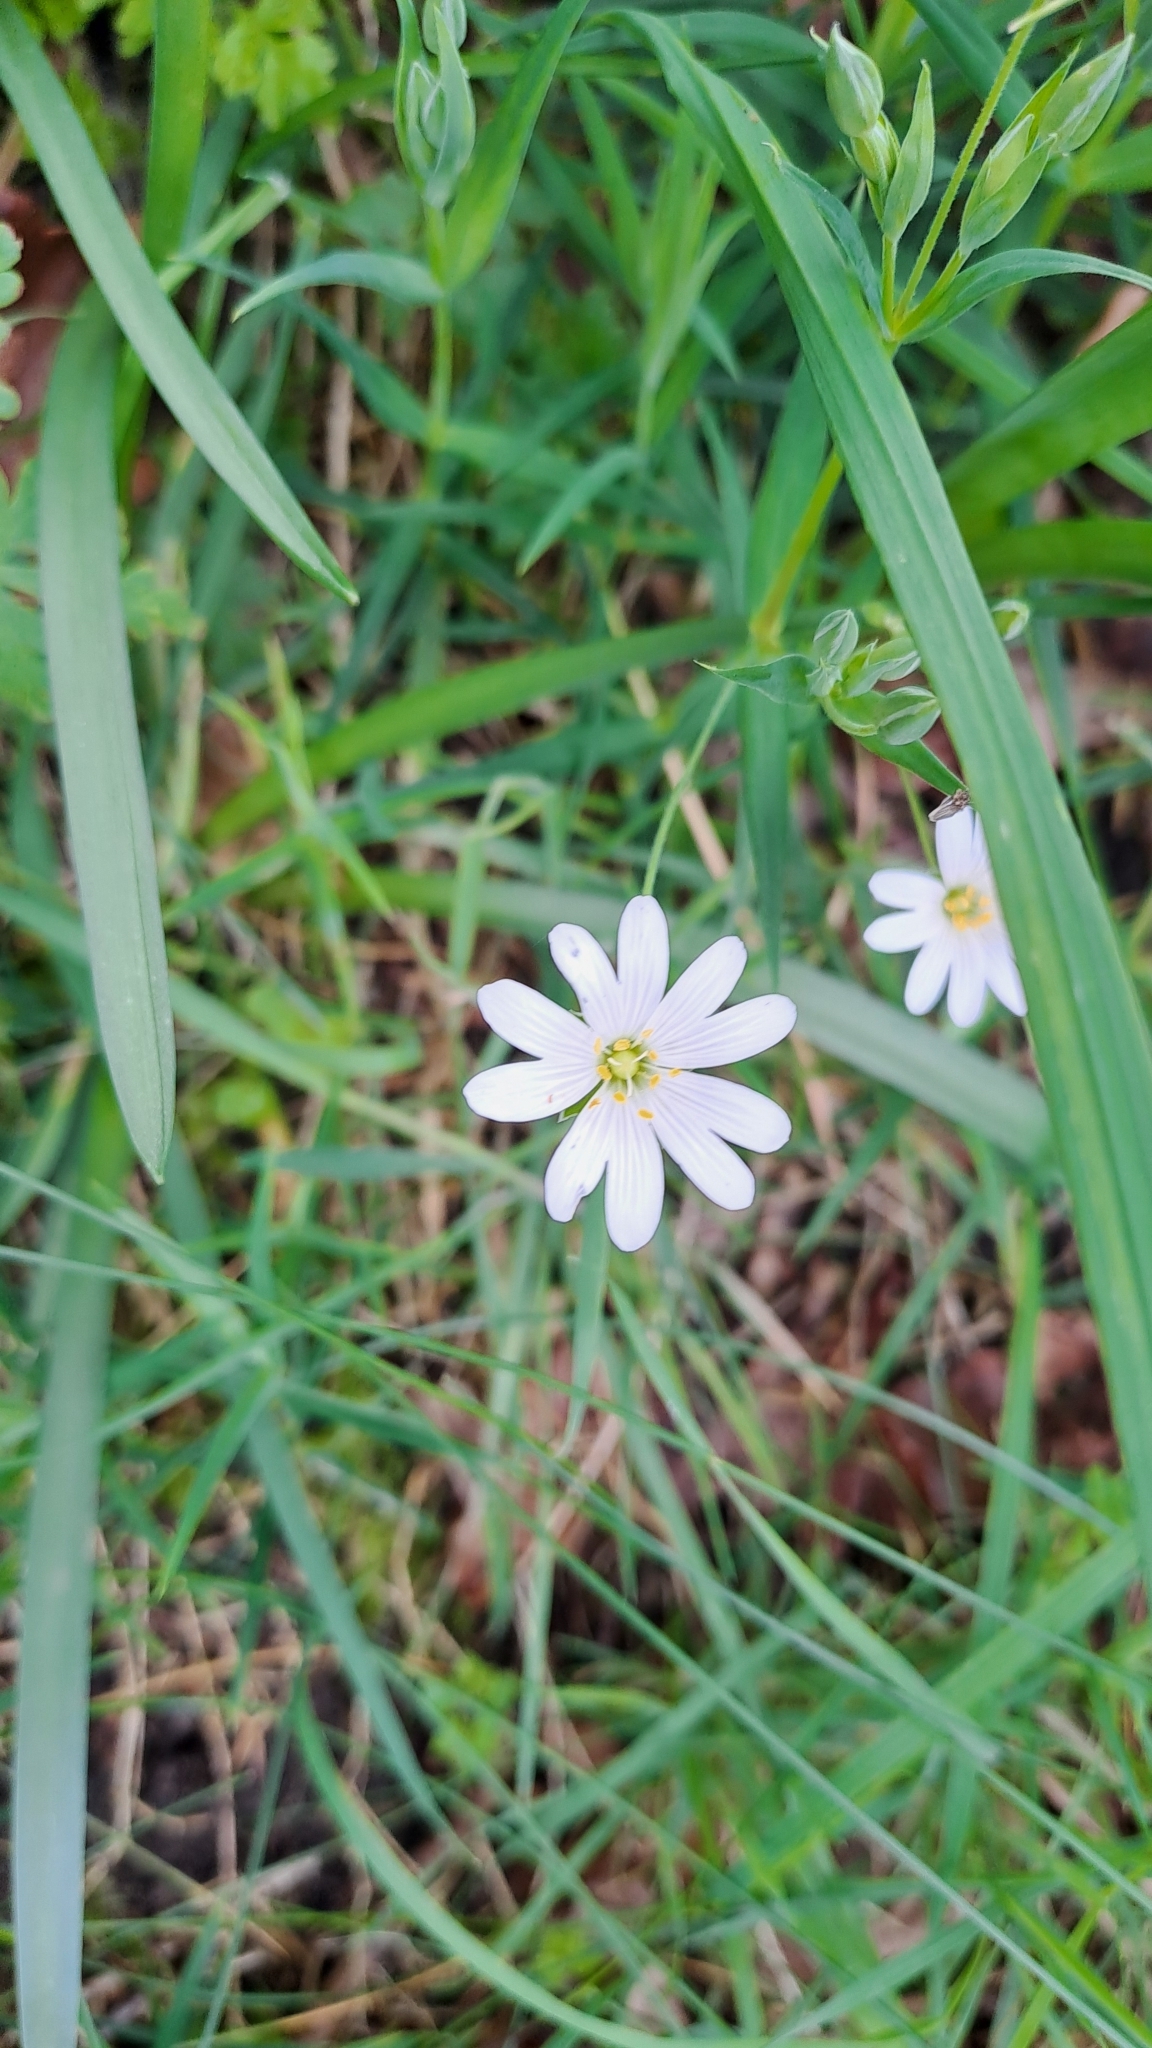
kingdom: Plantae
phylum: Tracheophyta
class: Magnoliopsida
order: Caryophyllales
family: Caryophyllaceae
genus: Rabelera
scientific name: Rabelera holostea
